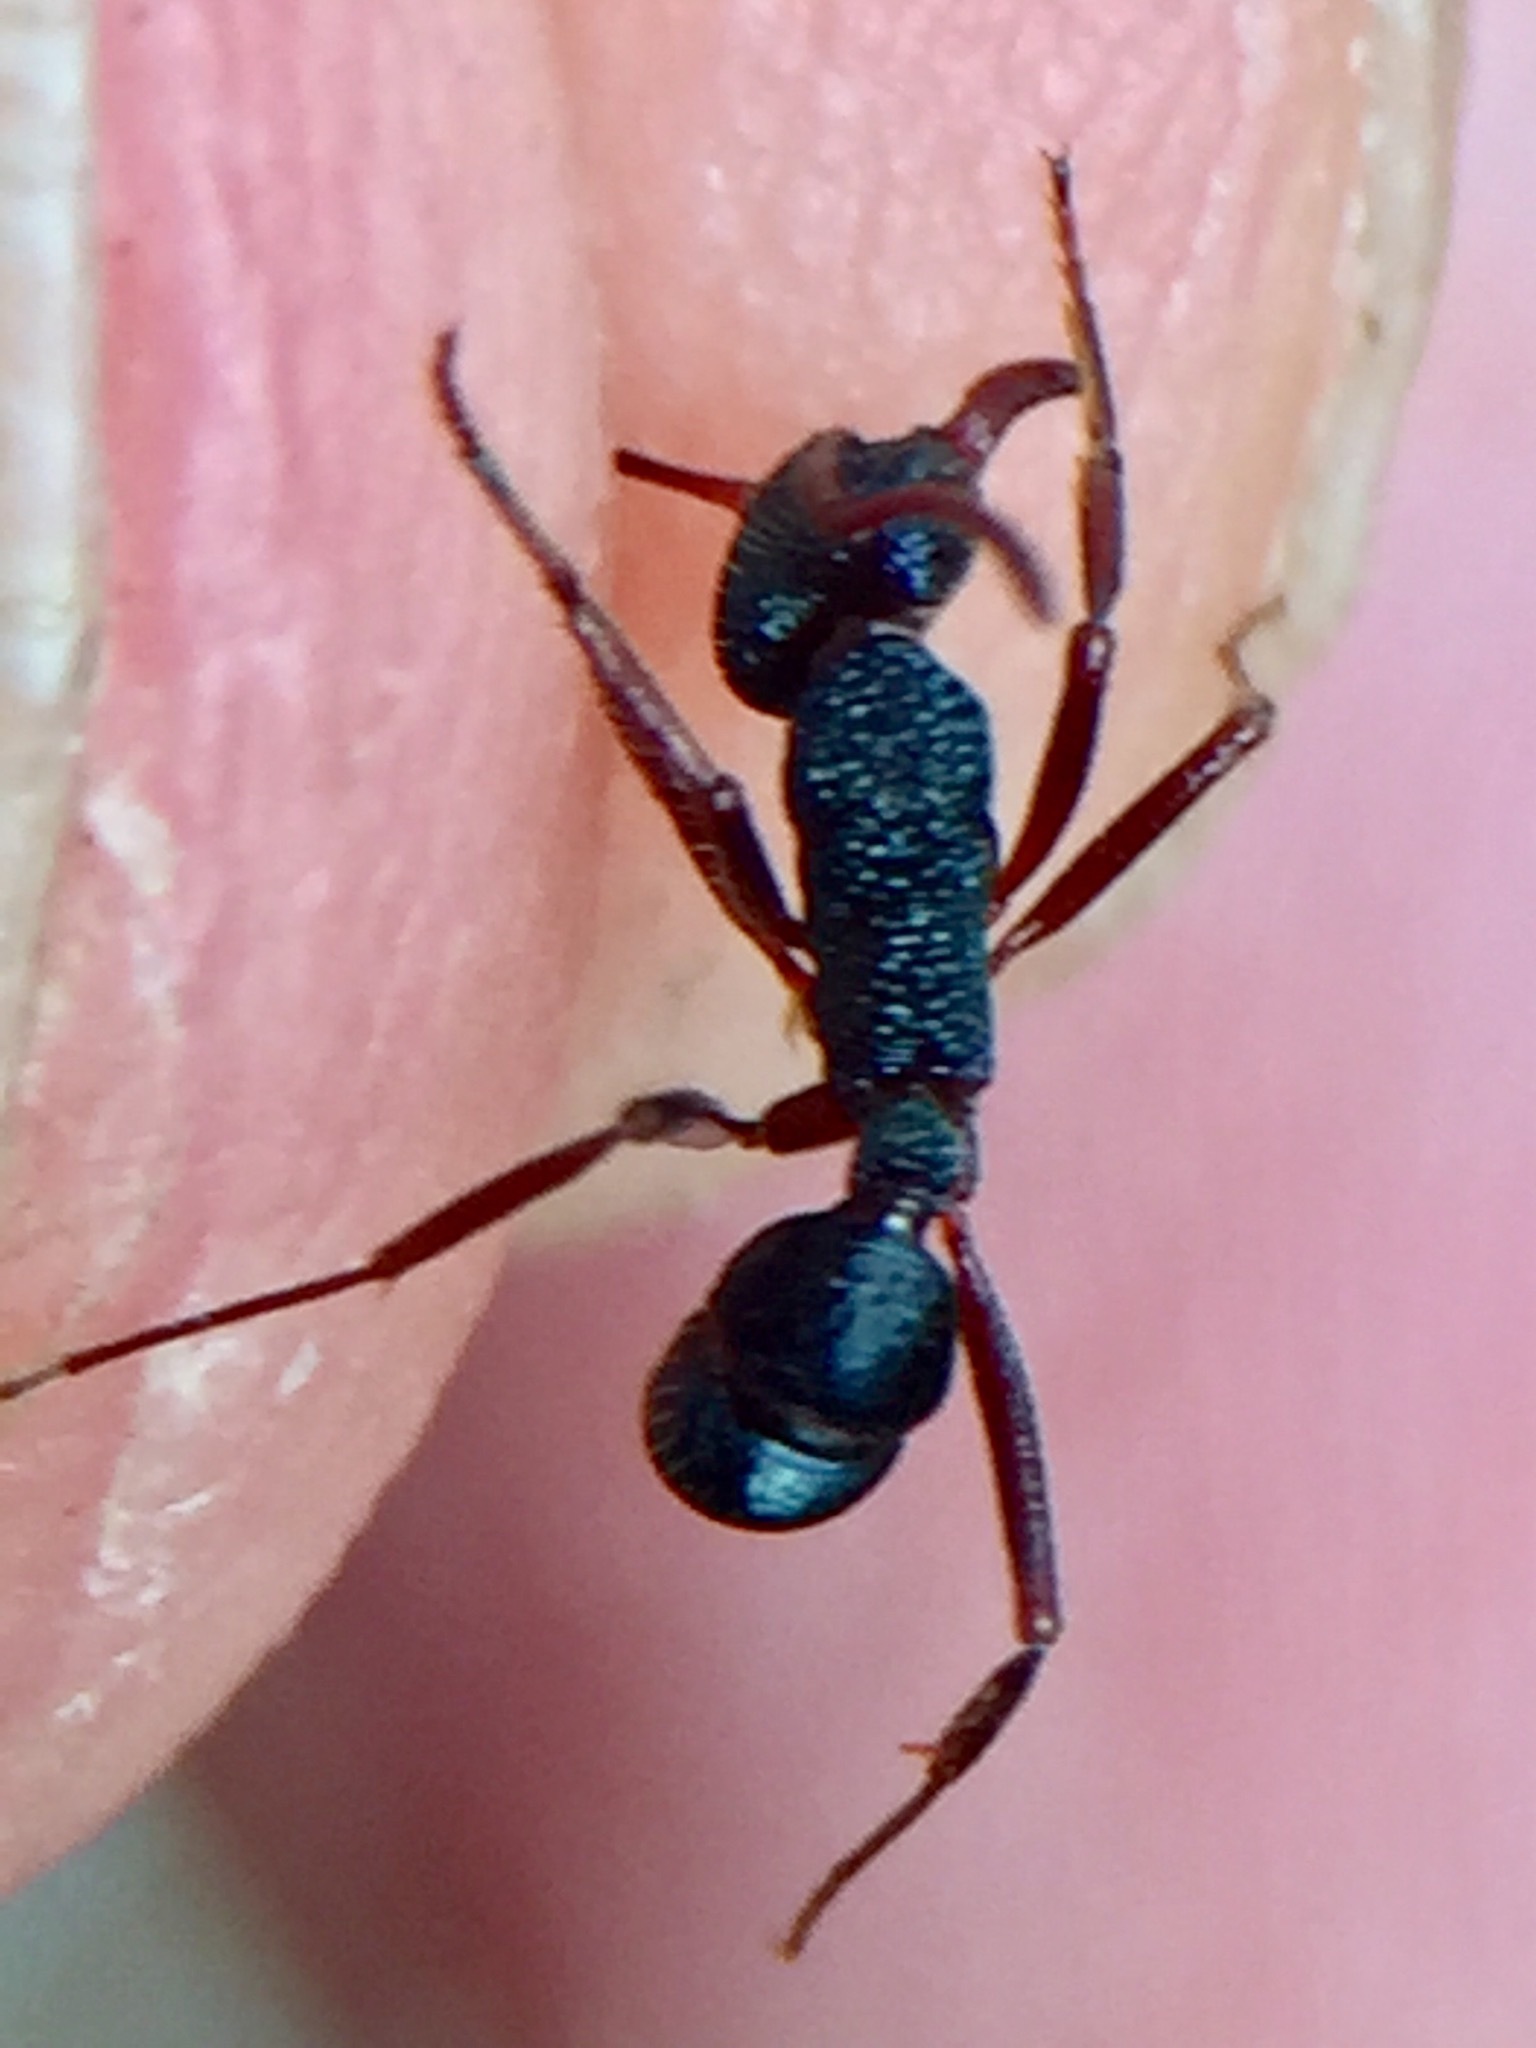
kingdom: Animalia
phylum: Arthropoda
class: Insecta
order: Hymenoptera
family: Formicidae
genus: Rhytidoponera
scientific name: Rhytidoponera chalybaea
